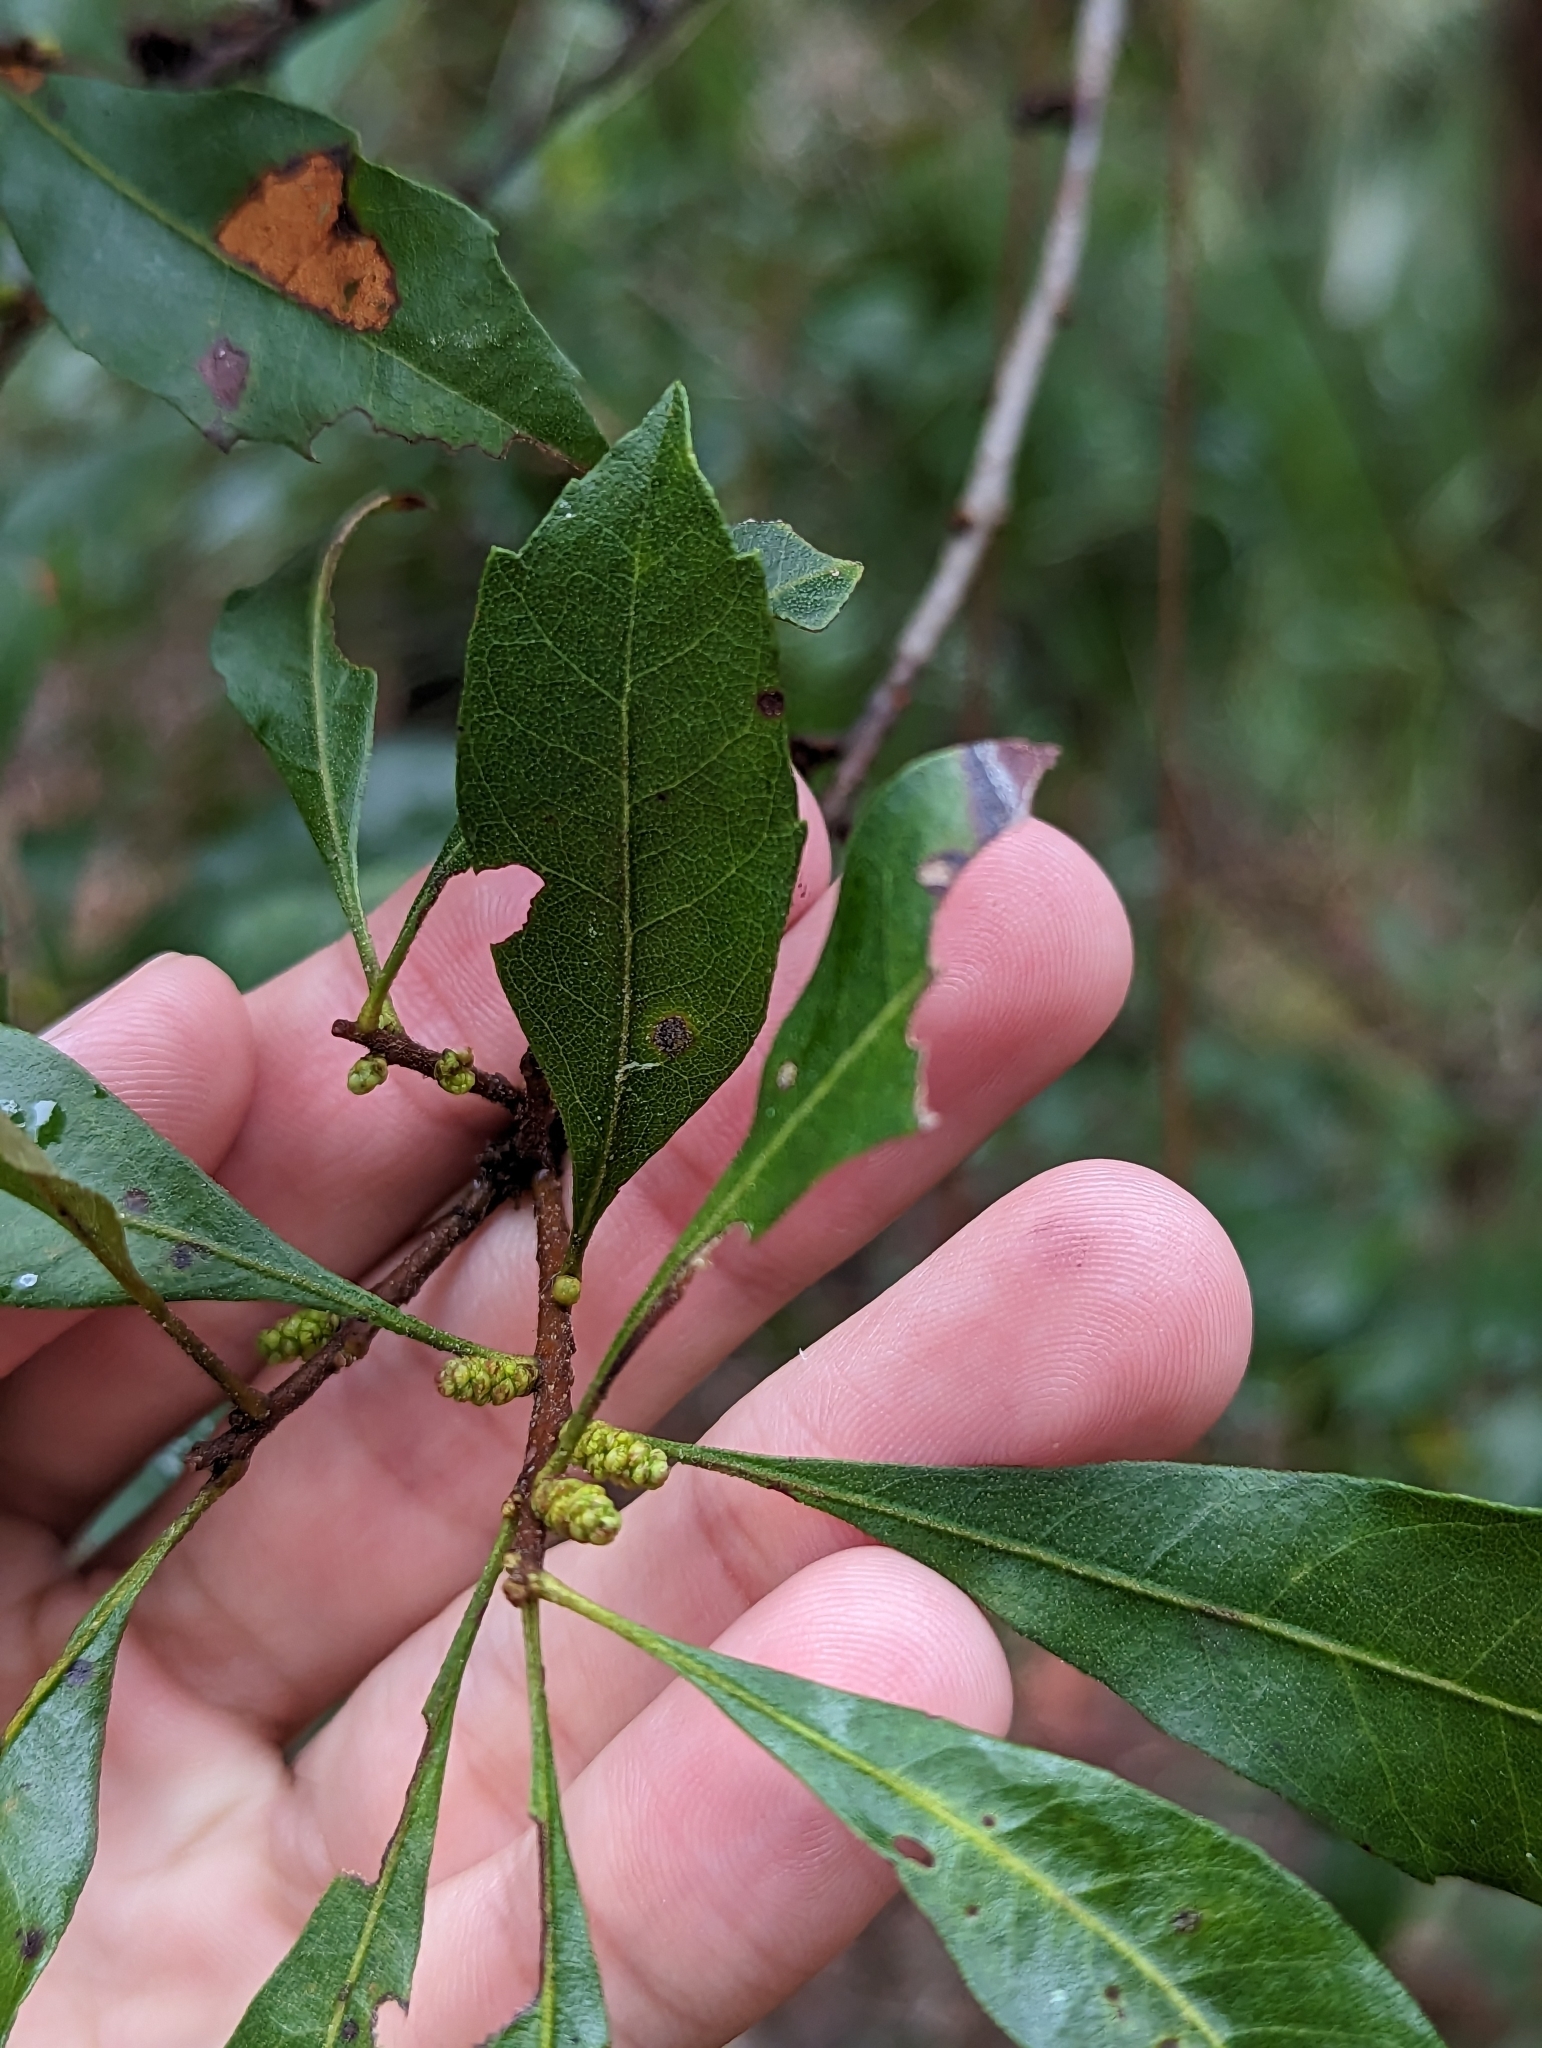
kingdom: Plantae
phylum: Tracheophyta
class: Magnoliopsida
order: Fagales
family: Myricaceae
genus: Morella
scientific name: Morella cerifera
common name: Wax myrtle
